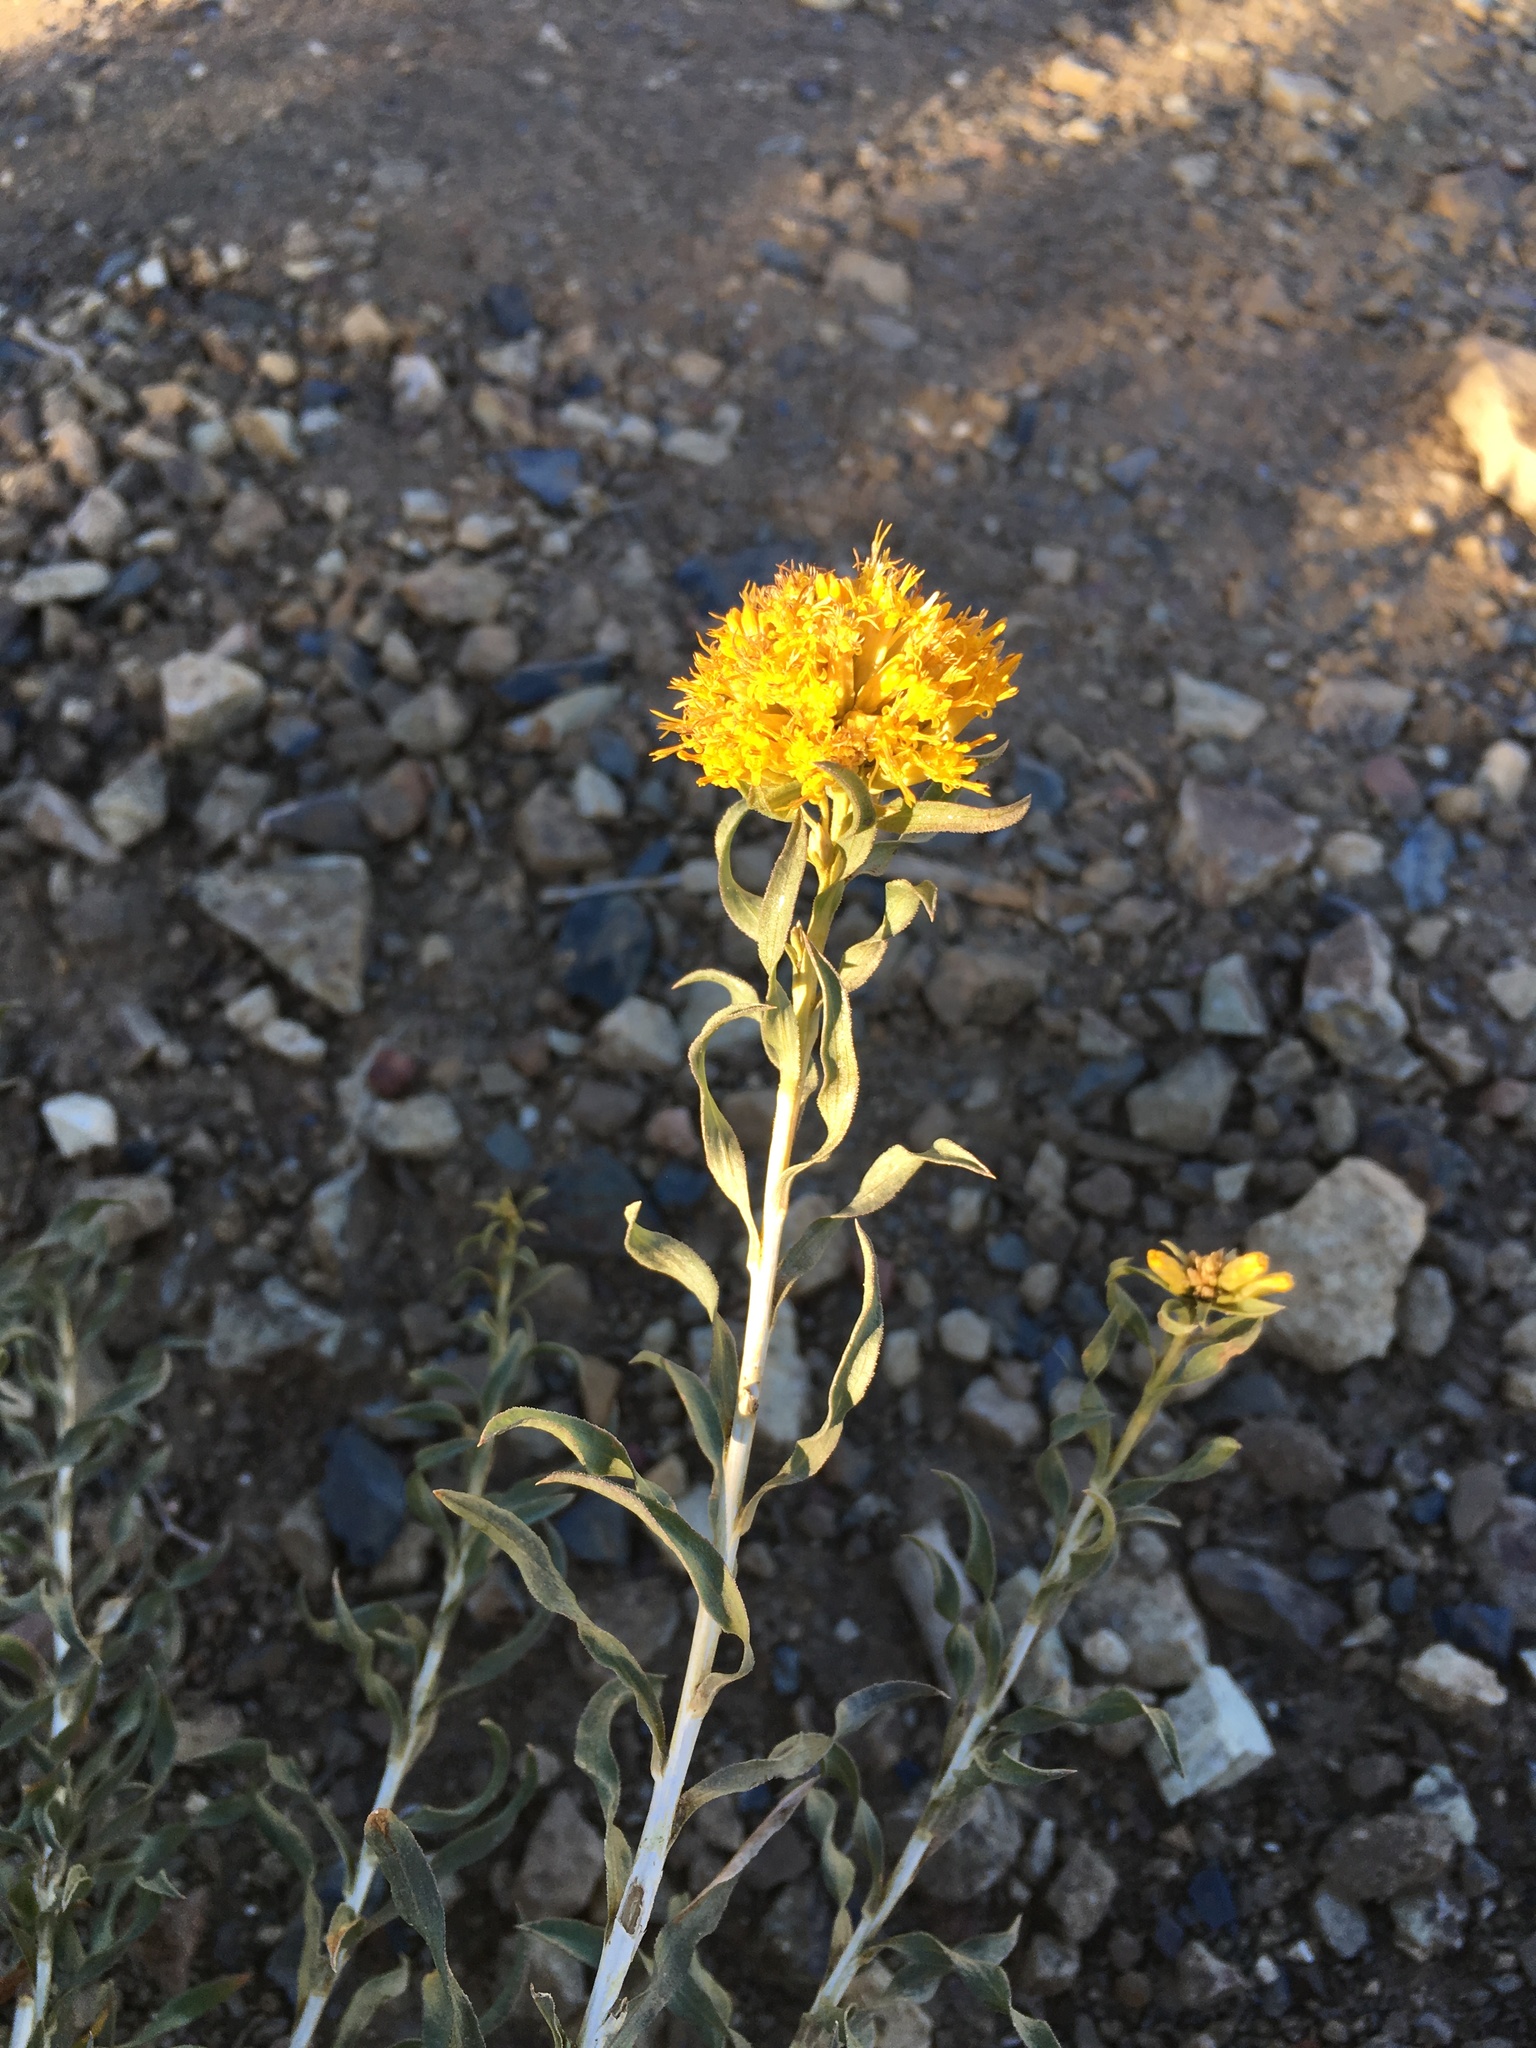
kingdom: Plantae
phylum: Tracheophyta
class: Magnoliopsida
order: Asterales
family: Asteraceae
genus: Chrysothamnus
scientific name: Chrysothamnus viscidiflorus
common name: Yellow rabbitbrush
